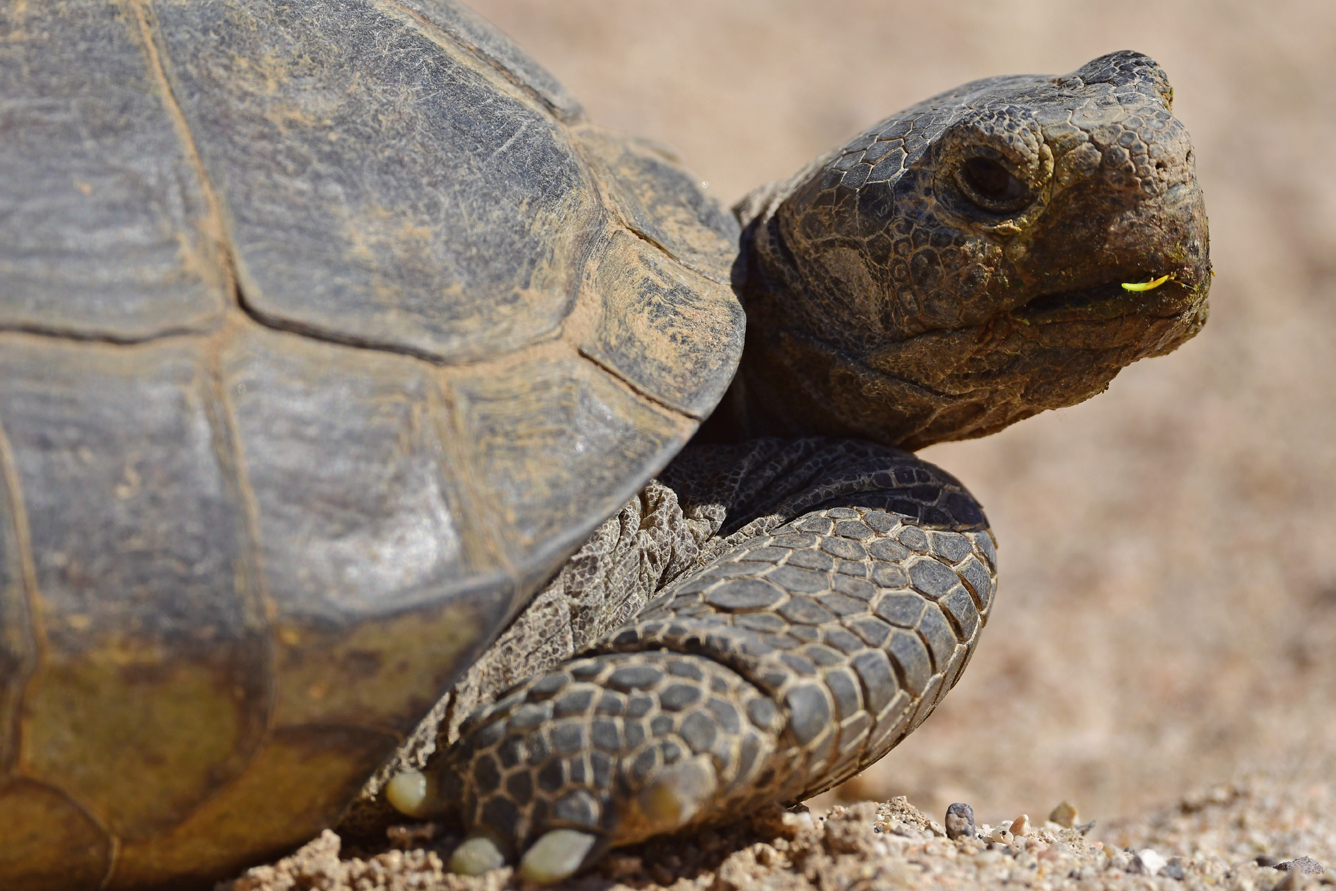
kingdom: Animalia
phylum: Chordata
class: Testudines
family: Testudinidae
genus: Gopherus
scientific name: Gopherus agassizii
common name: Mojave desert tortoise
